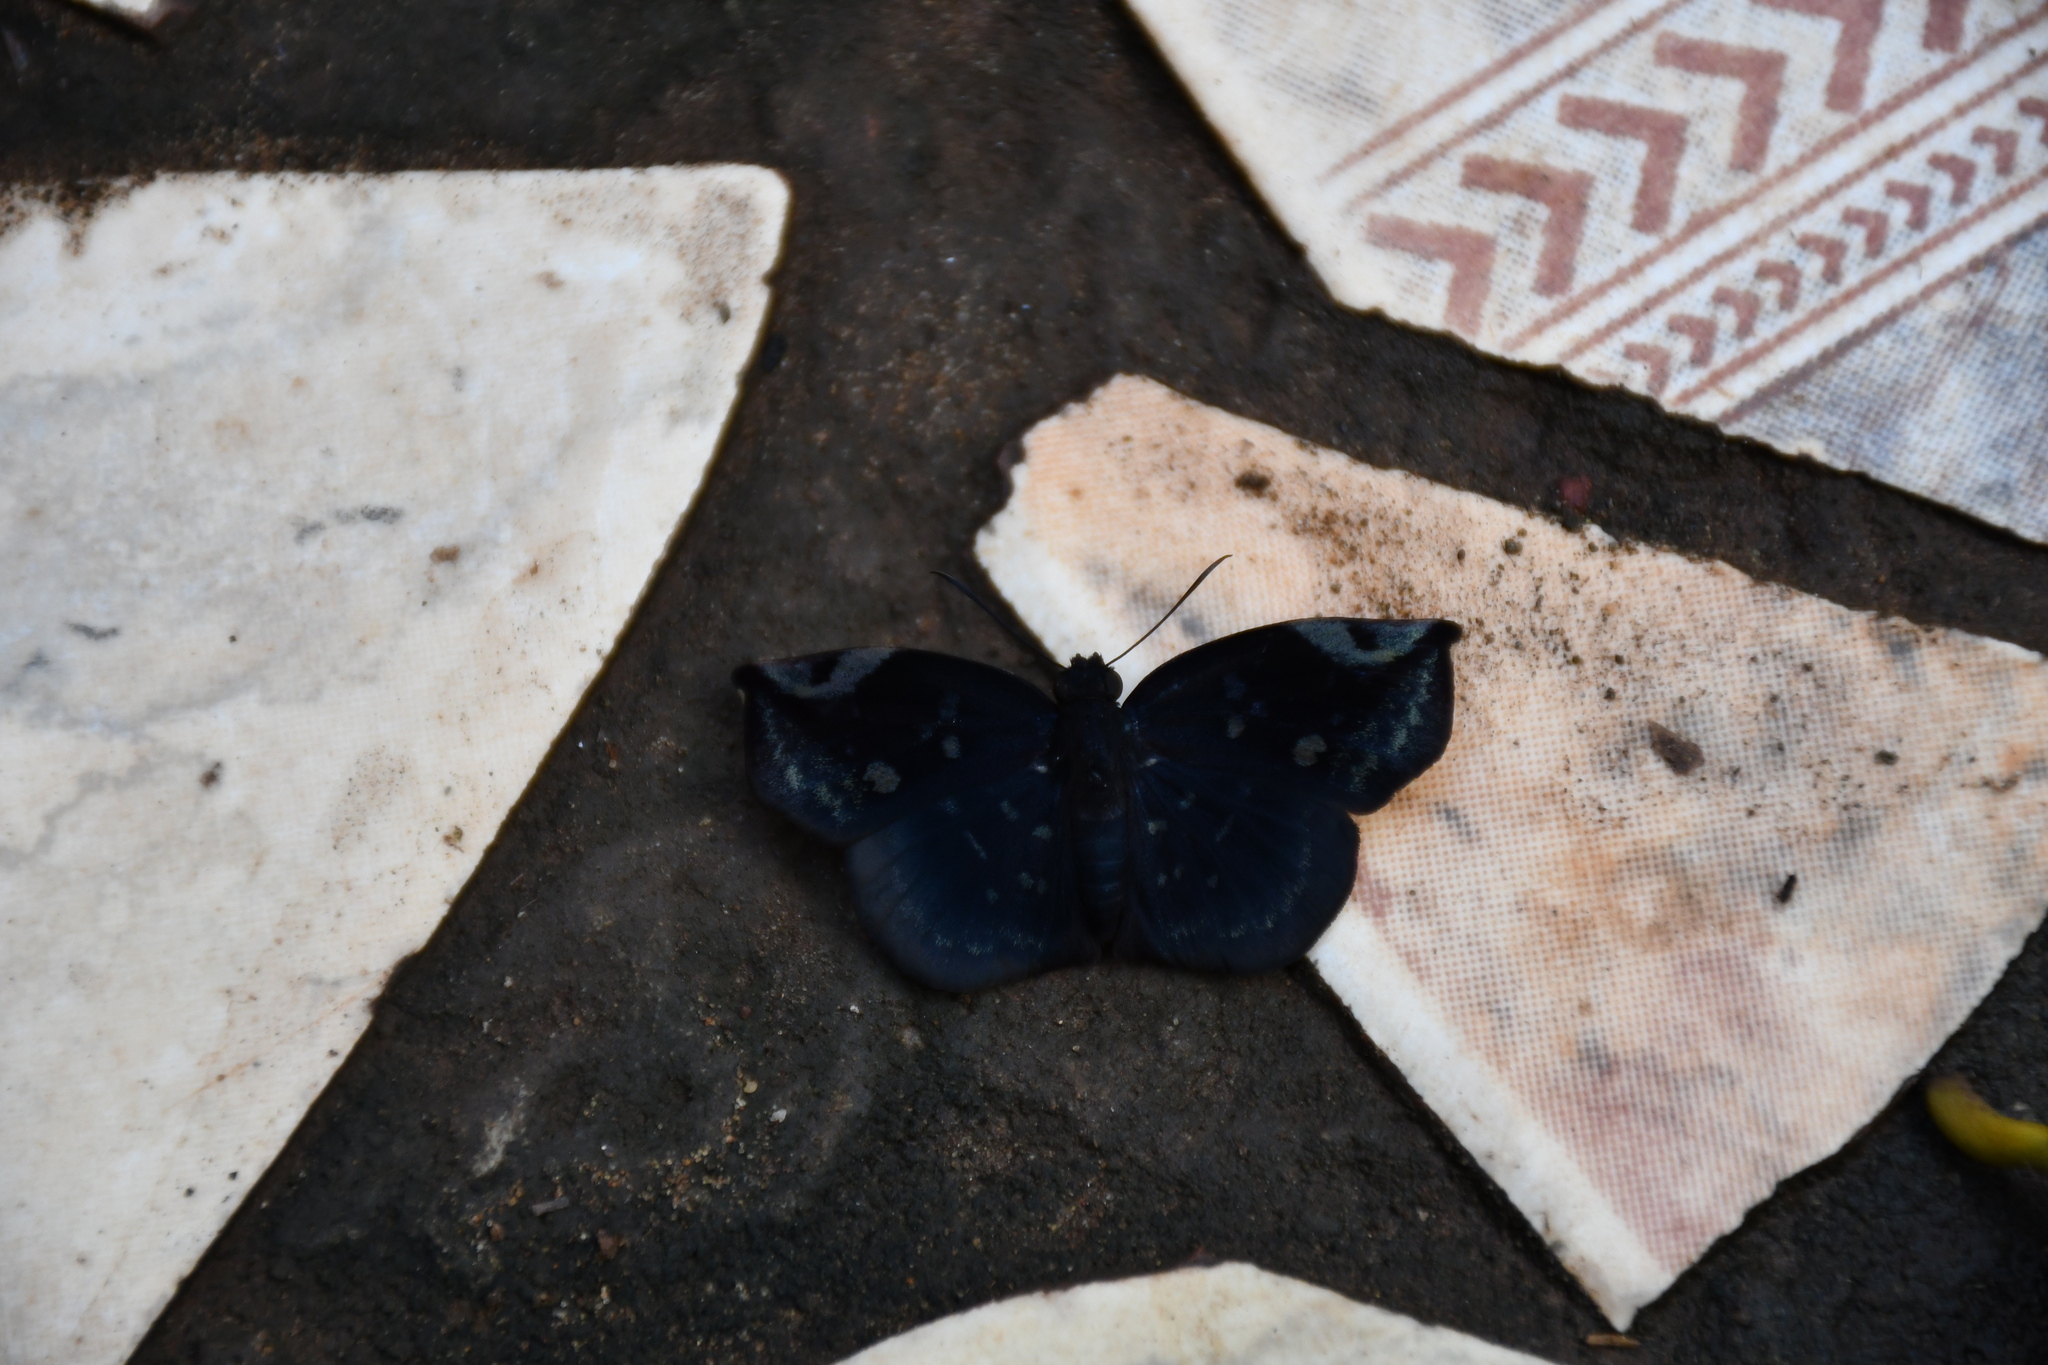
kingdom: Animalia
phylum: Arthropoda
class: Insecta
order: Lepidoptera
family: Hesperiidae
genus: Achlyodes
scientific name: Achlyodes thraso
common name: Sickle-winged skipper
